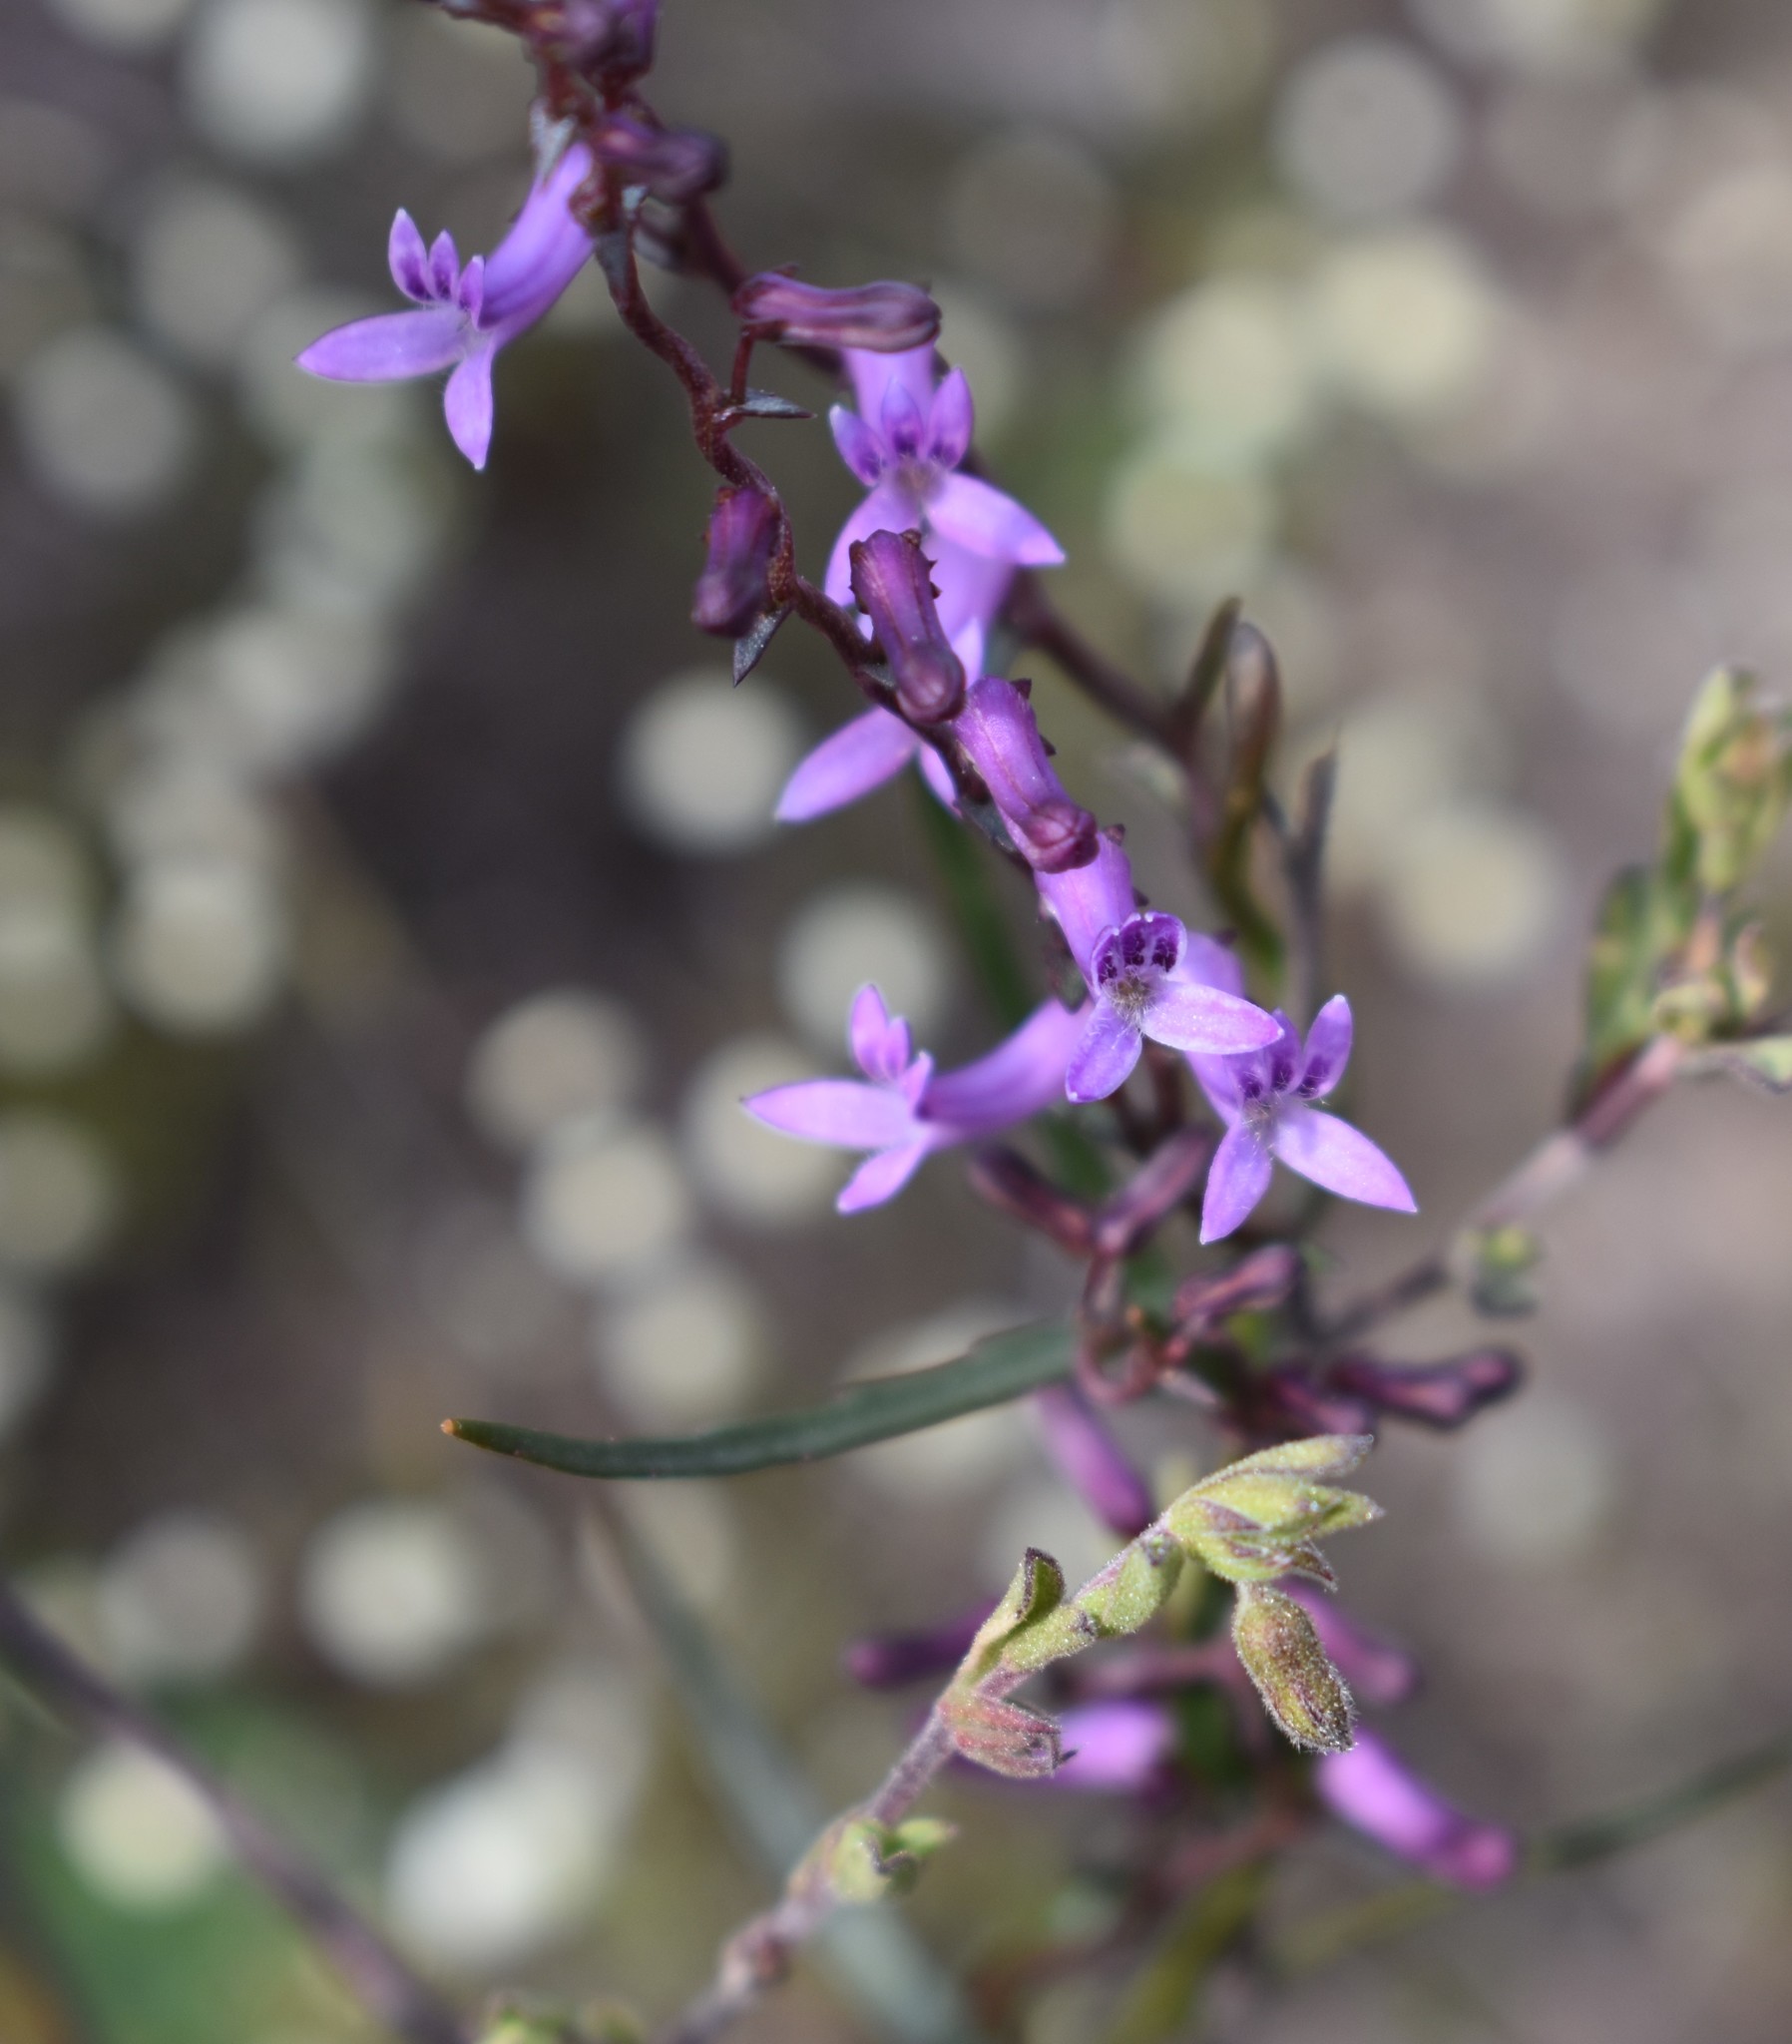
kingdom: Plantae
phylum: Tracheophyta
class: Magnoliopsida
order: Asterales
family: Campanulaceae
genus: Cyphia
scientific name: Cyphia digitata
